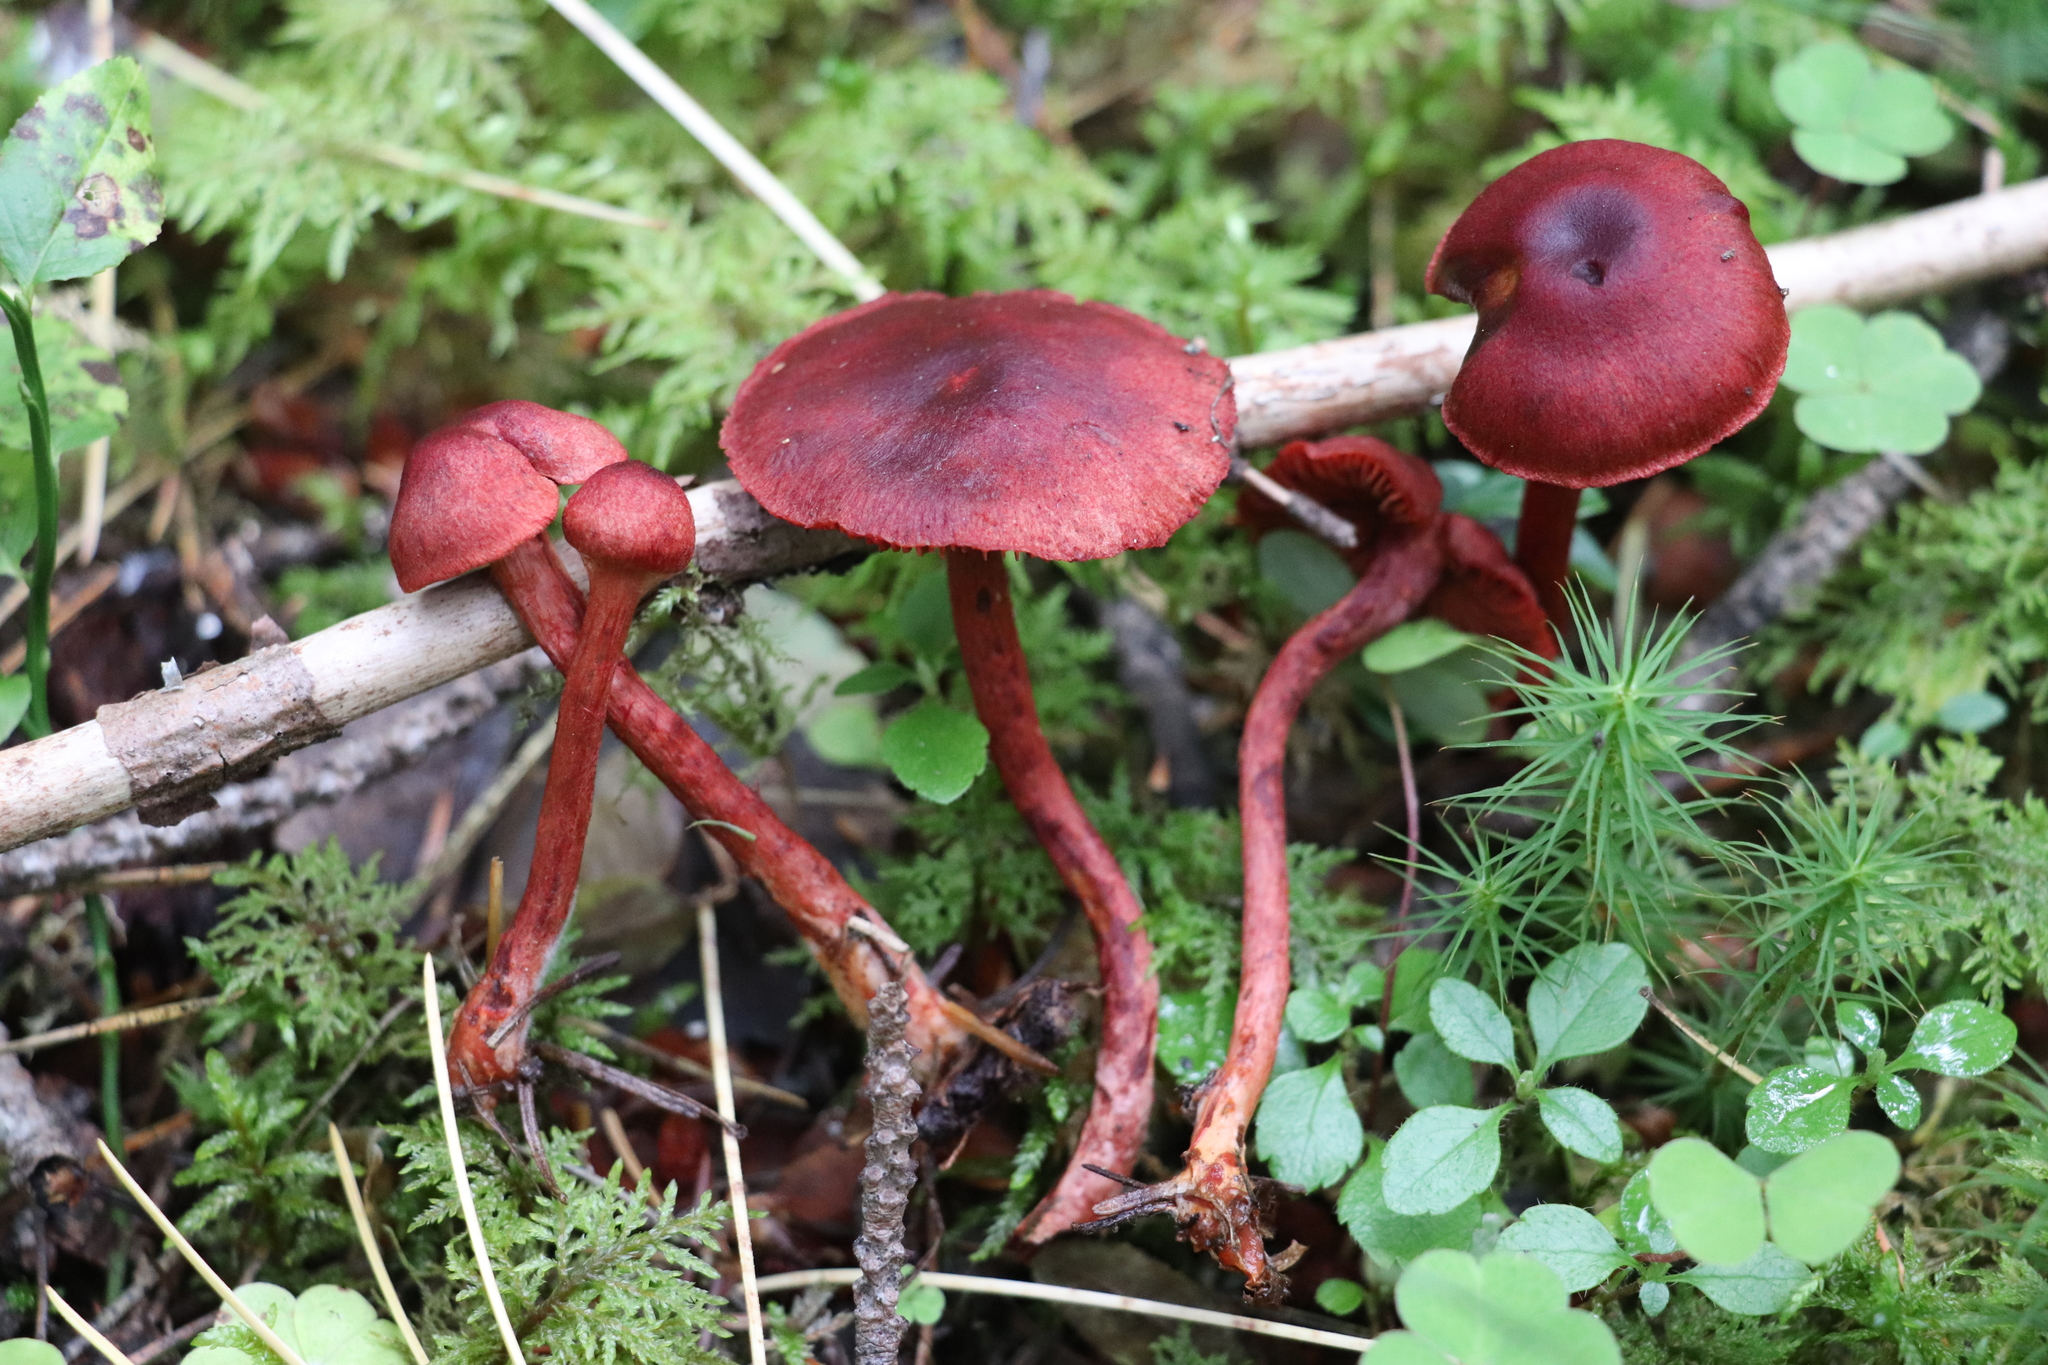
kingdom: Fungi
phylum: Basidiomycota
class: Agaricomycetes
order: Agaricales
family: Cortinariaceae
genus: Cortinarius
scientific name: Cortinarius sanguineus
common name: Bloodred webcap
